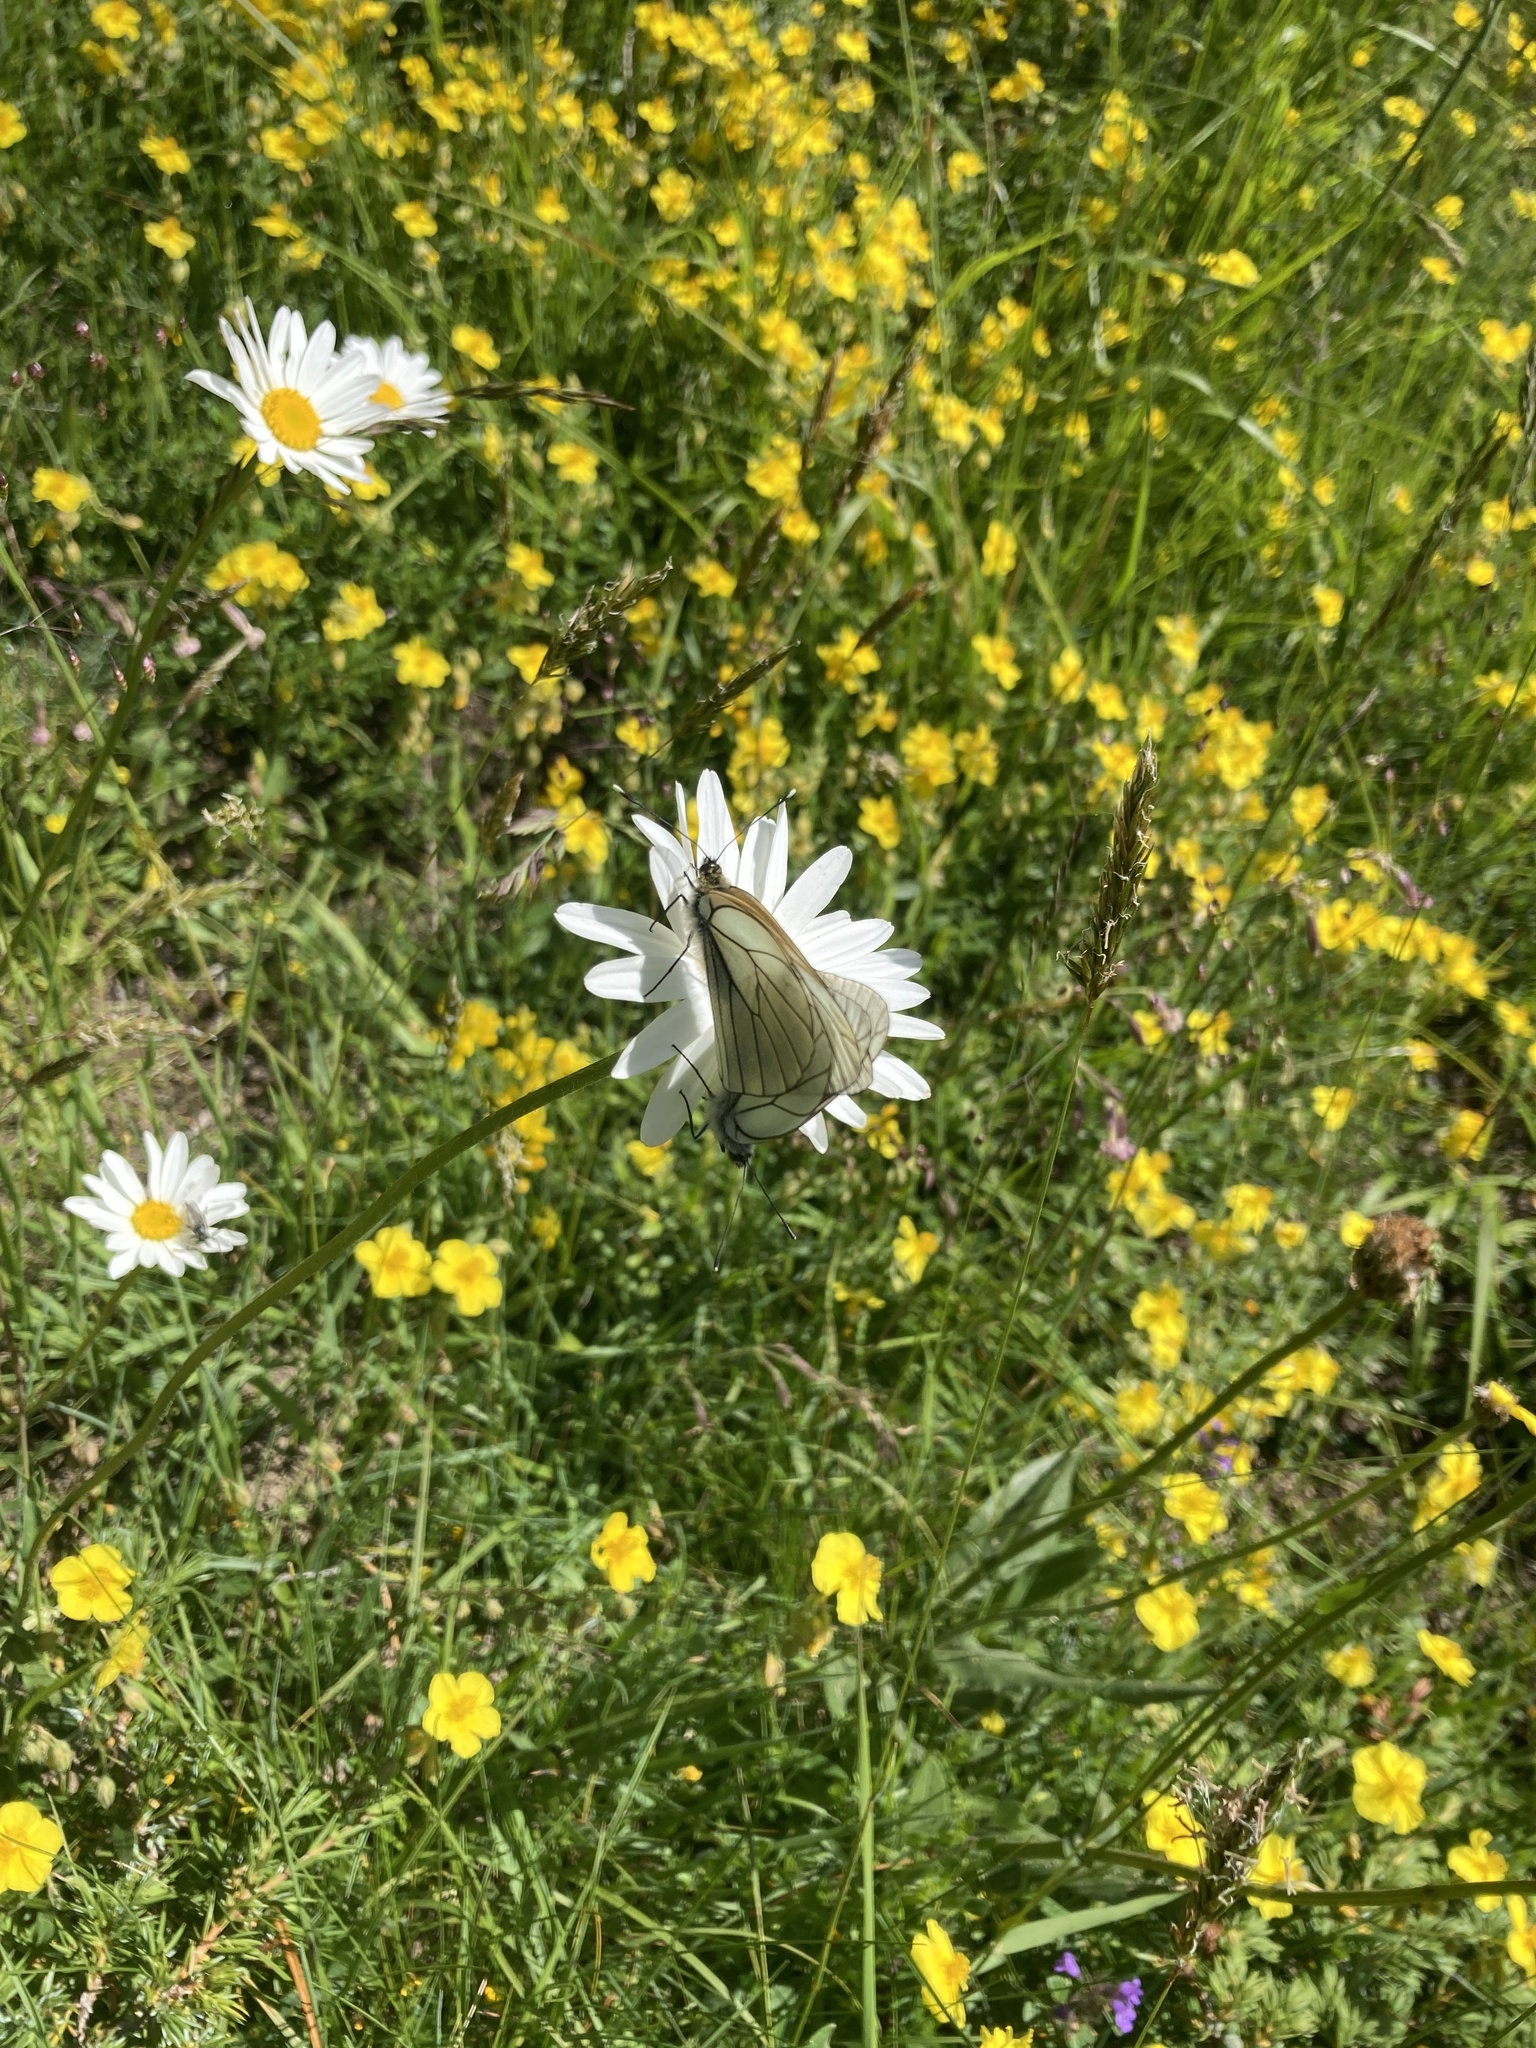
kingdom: Animalia
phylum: Arthropoda
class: Insecta
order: Lepidoptera
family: Pieridae
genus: Aporia
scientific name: Aporia crataegi
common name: Black-veined white
